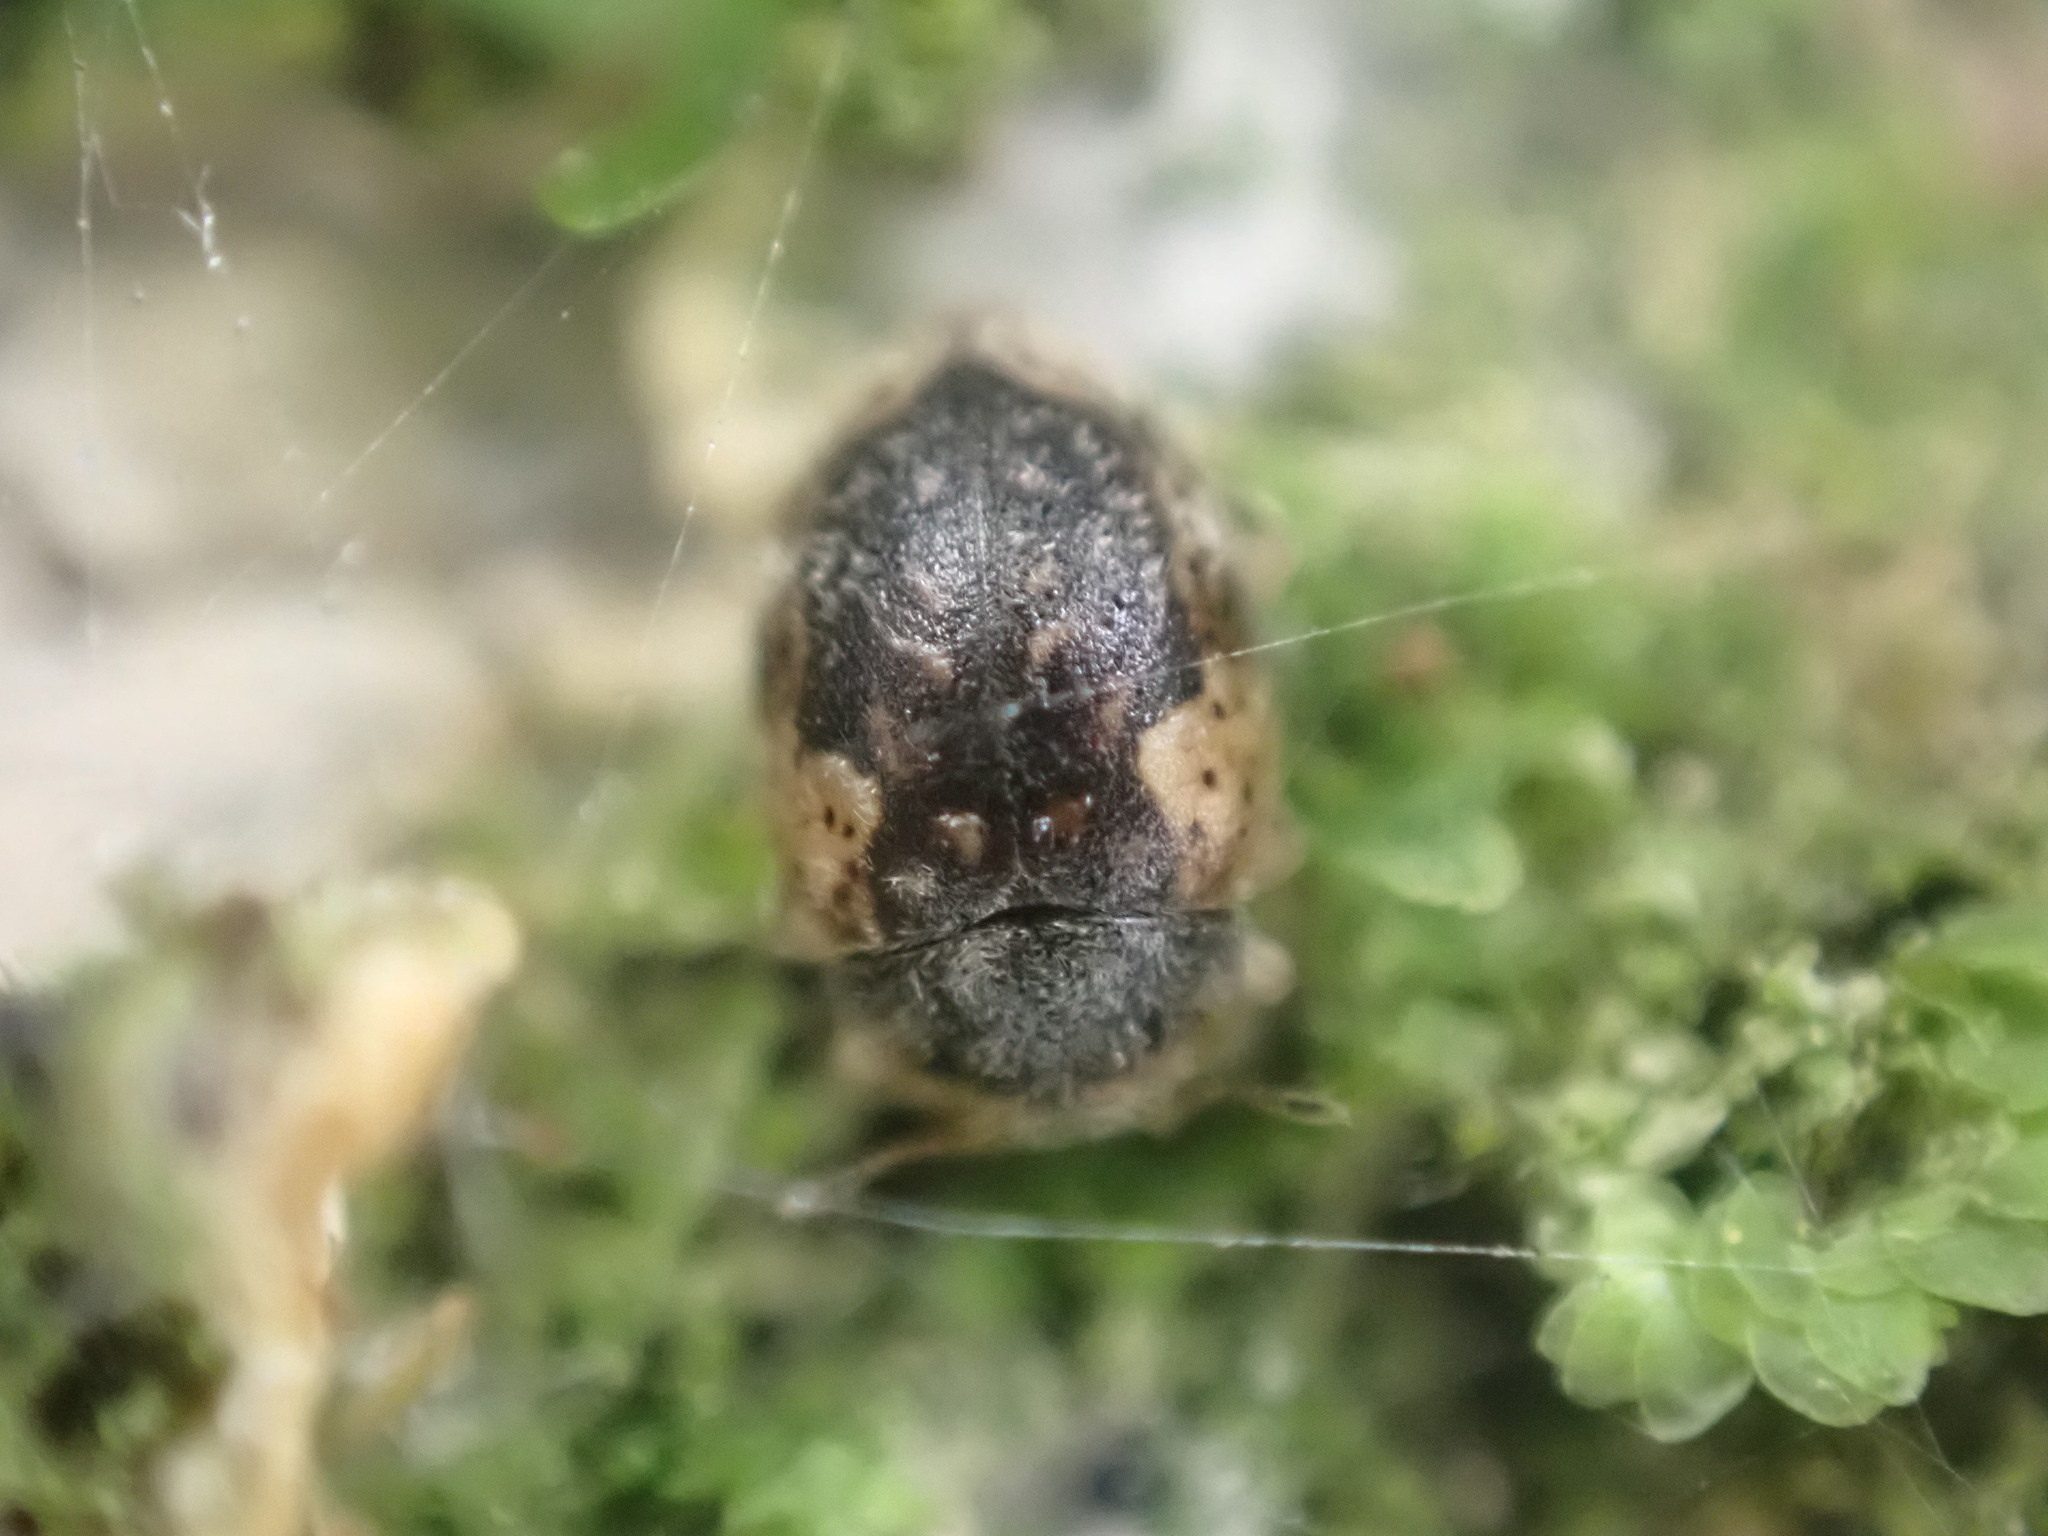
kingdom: Animalia
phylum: Arthropoda
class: Insecta
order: Coleoptera
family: Coccinellidae
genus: Rhyzobius
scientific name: Rhyzobius
